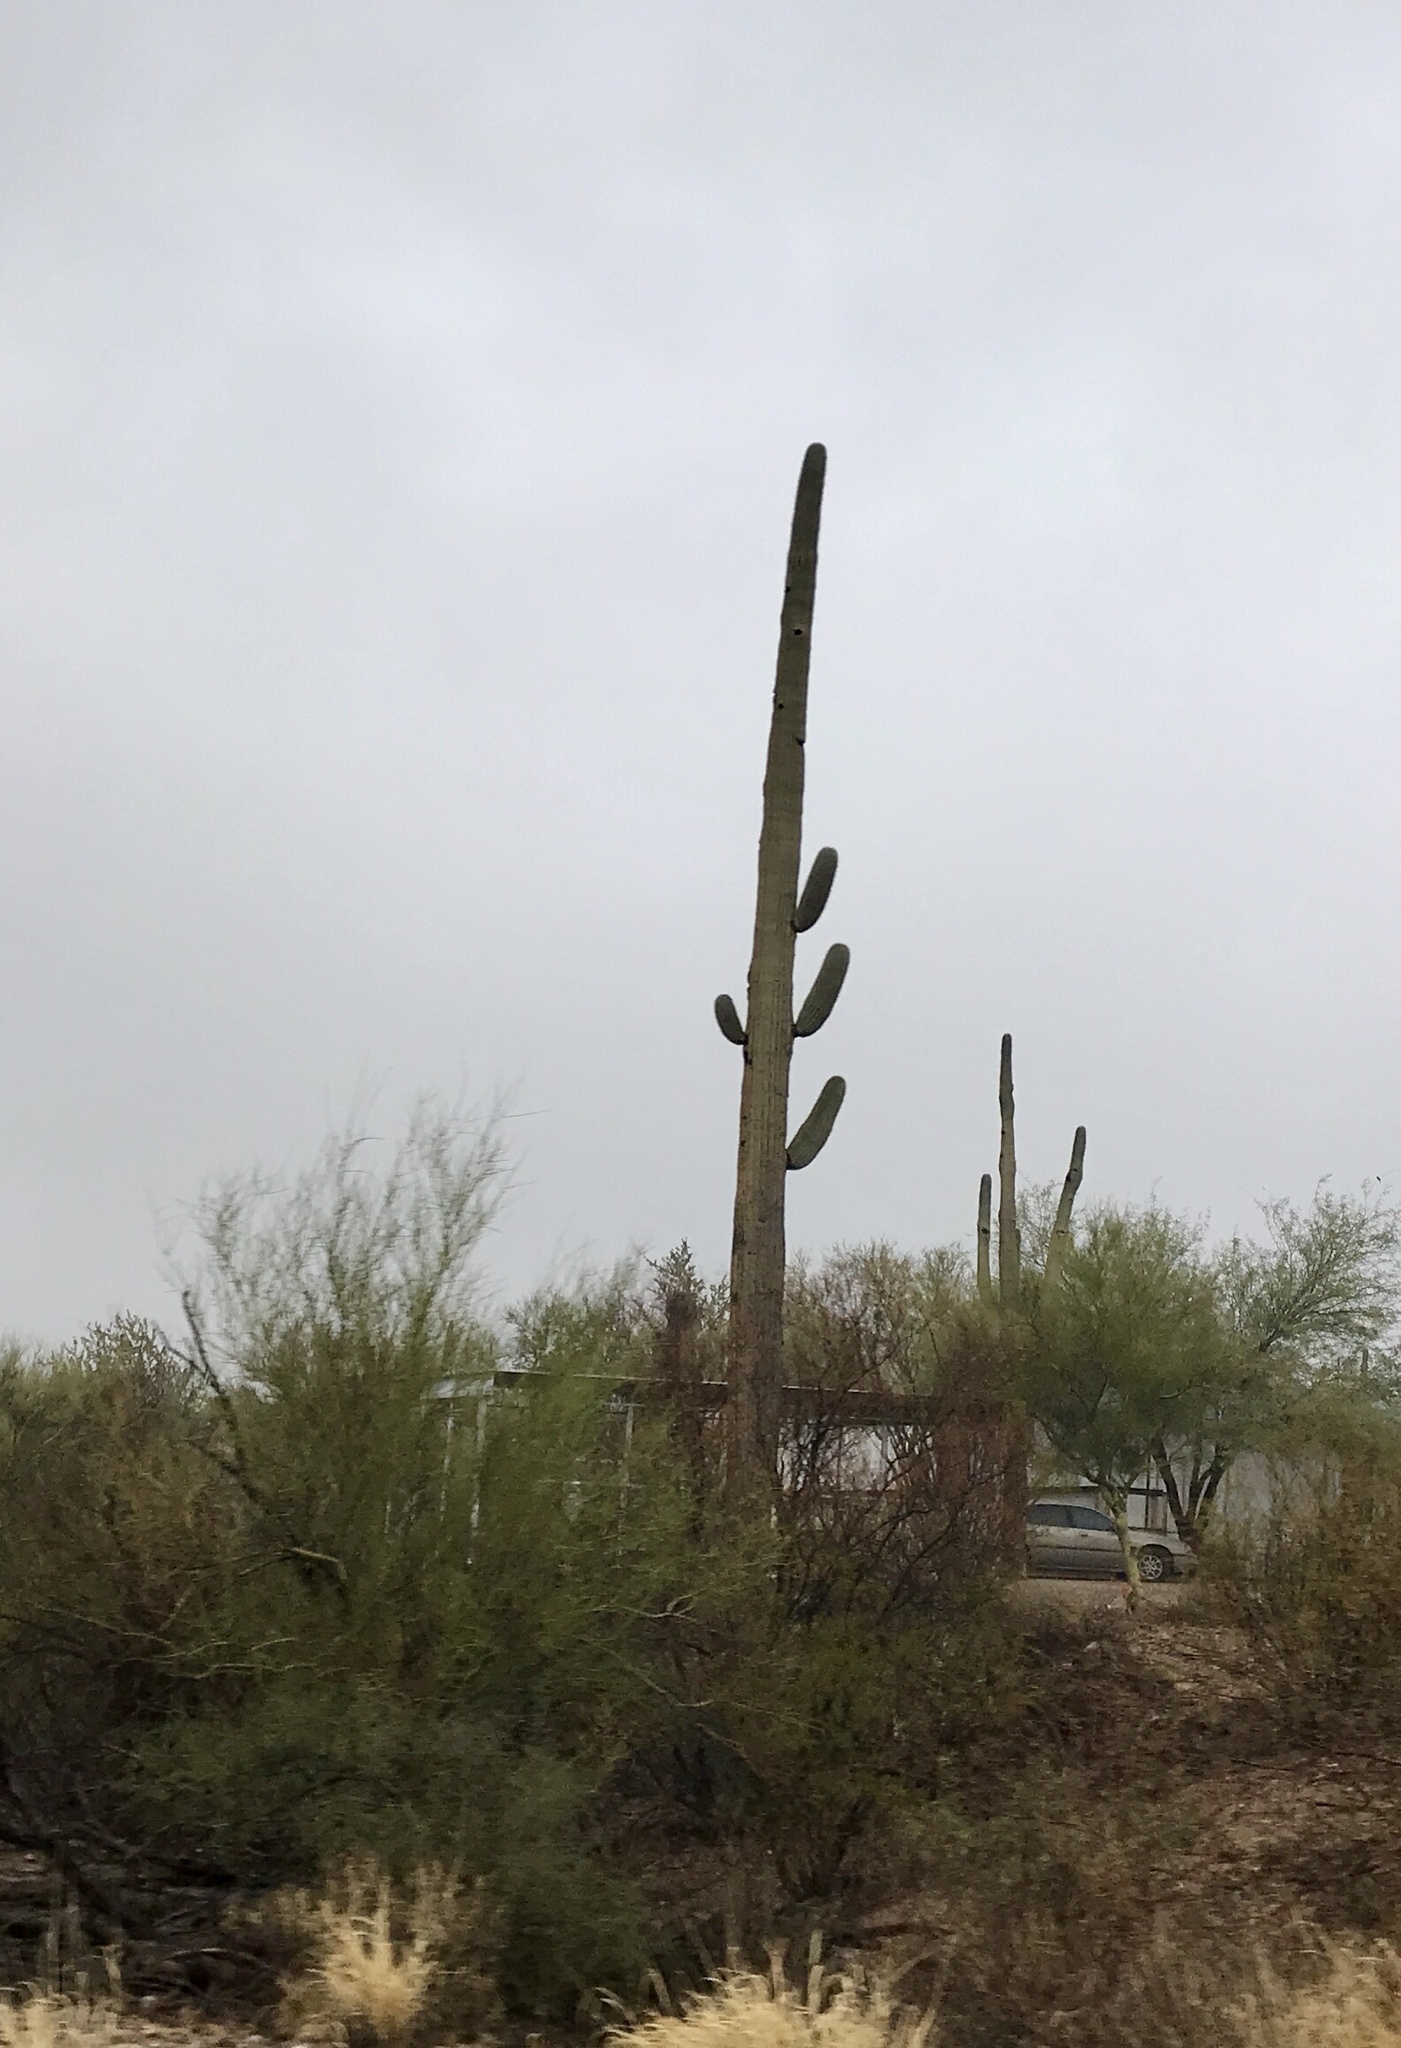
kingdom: Plantae
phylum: Tracheophyta
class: Magnoliopsida
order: Caryophyllales
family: Cactaceae
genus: Carnegiea
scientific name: Carnegiea gigantea
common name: Saguaro
